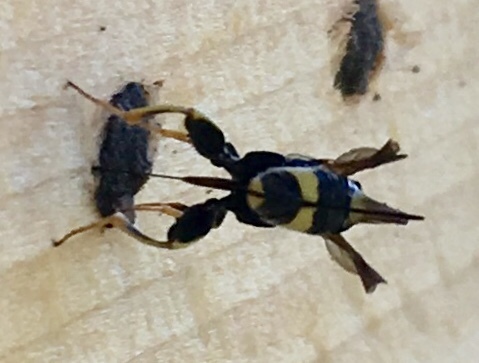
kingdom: Animalia
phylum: Arthropoda
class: Insecta
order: Hymenoptera
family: Leucospidae
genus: Leucospis
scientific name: Leucospis dorsigera
